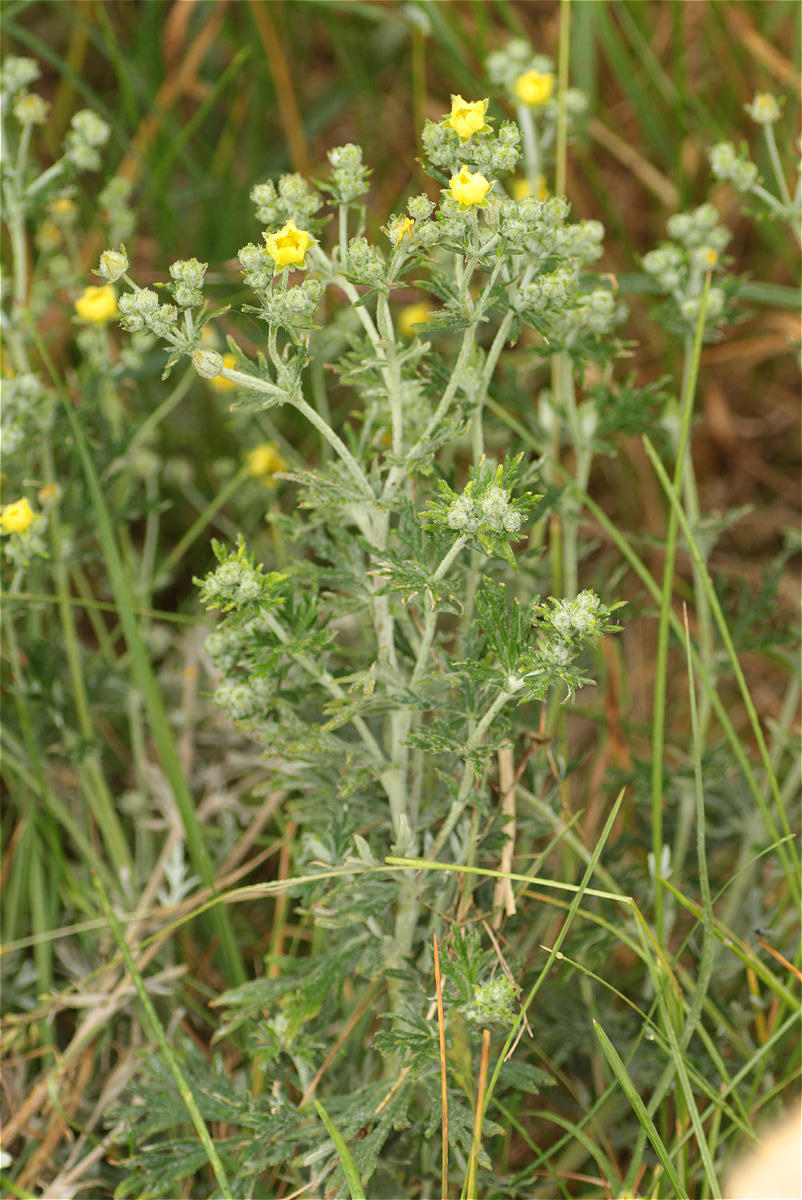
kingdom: Plantae
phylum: Tracheophyta
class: Magnoliopsida
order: Rosales
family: Rosaceae
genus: Potentilla
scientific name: Potentilla argentea
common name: Hoary cinquefoil
